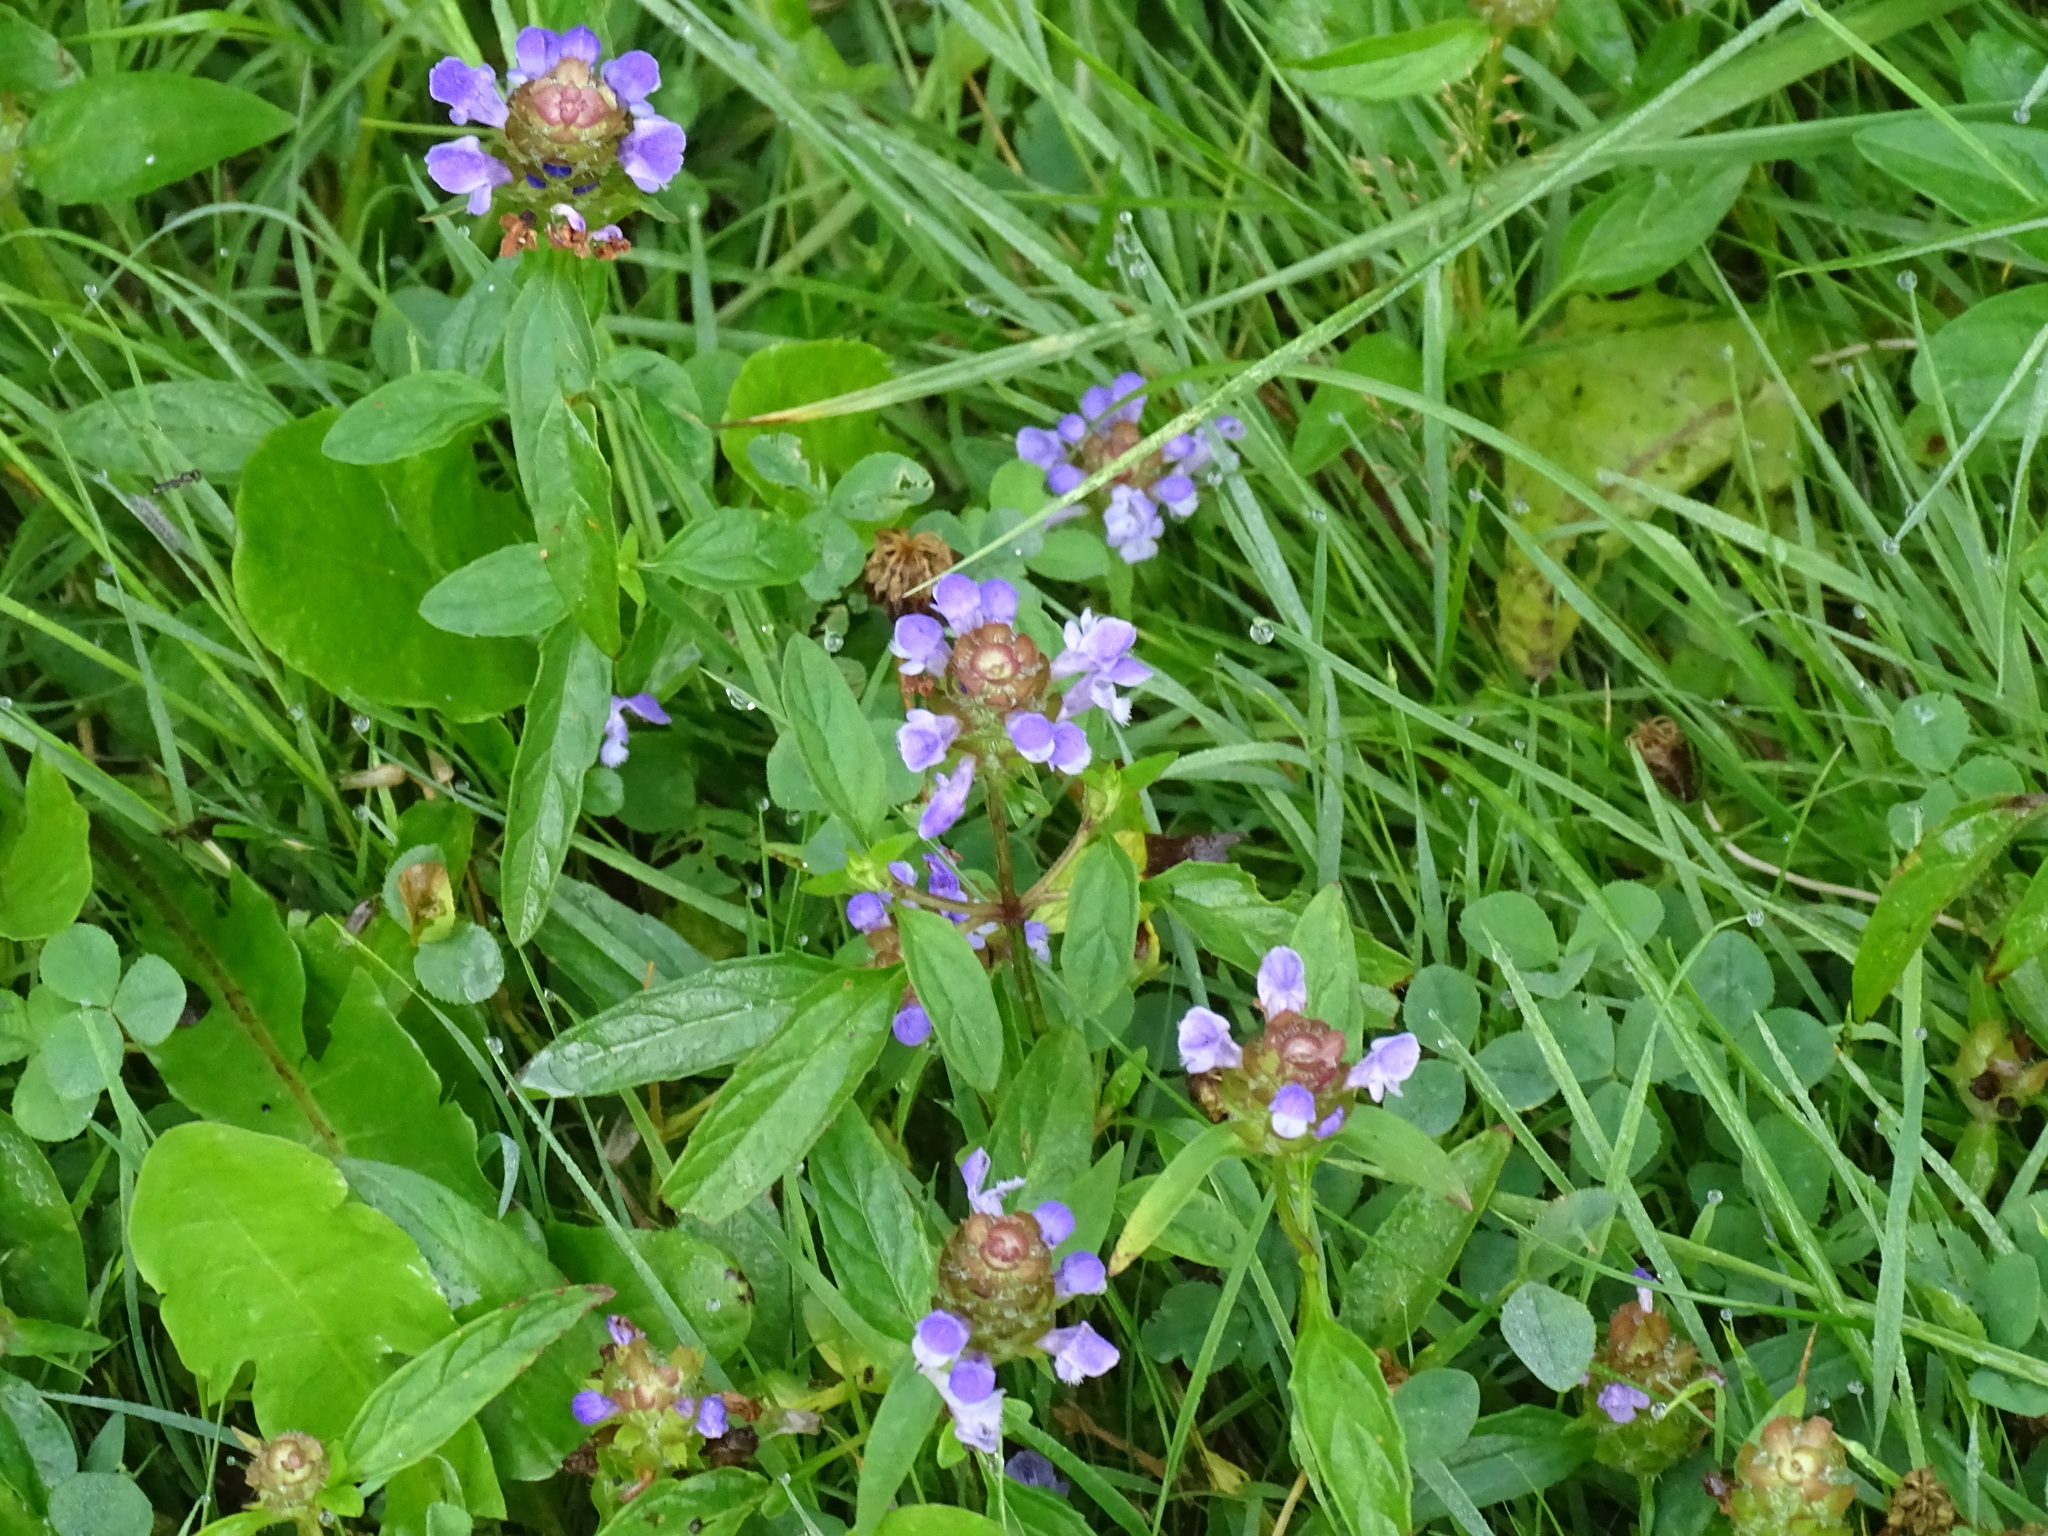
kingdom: Plantae
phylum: Tracheophyta
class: Magnoliopsida
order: Lamiales
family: Lamiaceae
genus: Prunella
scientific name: Prunella vulgaris
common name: Heal-all
